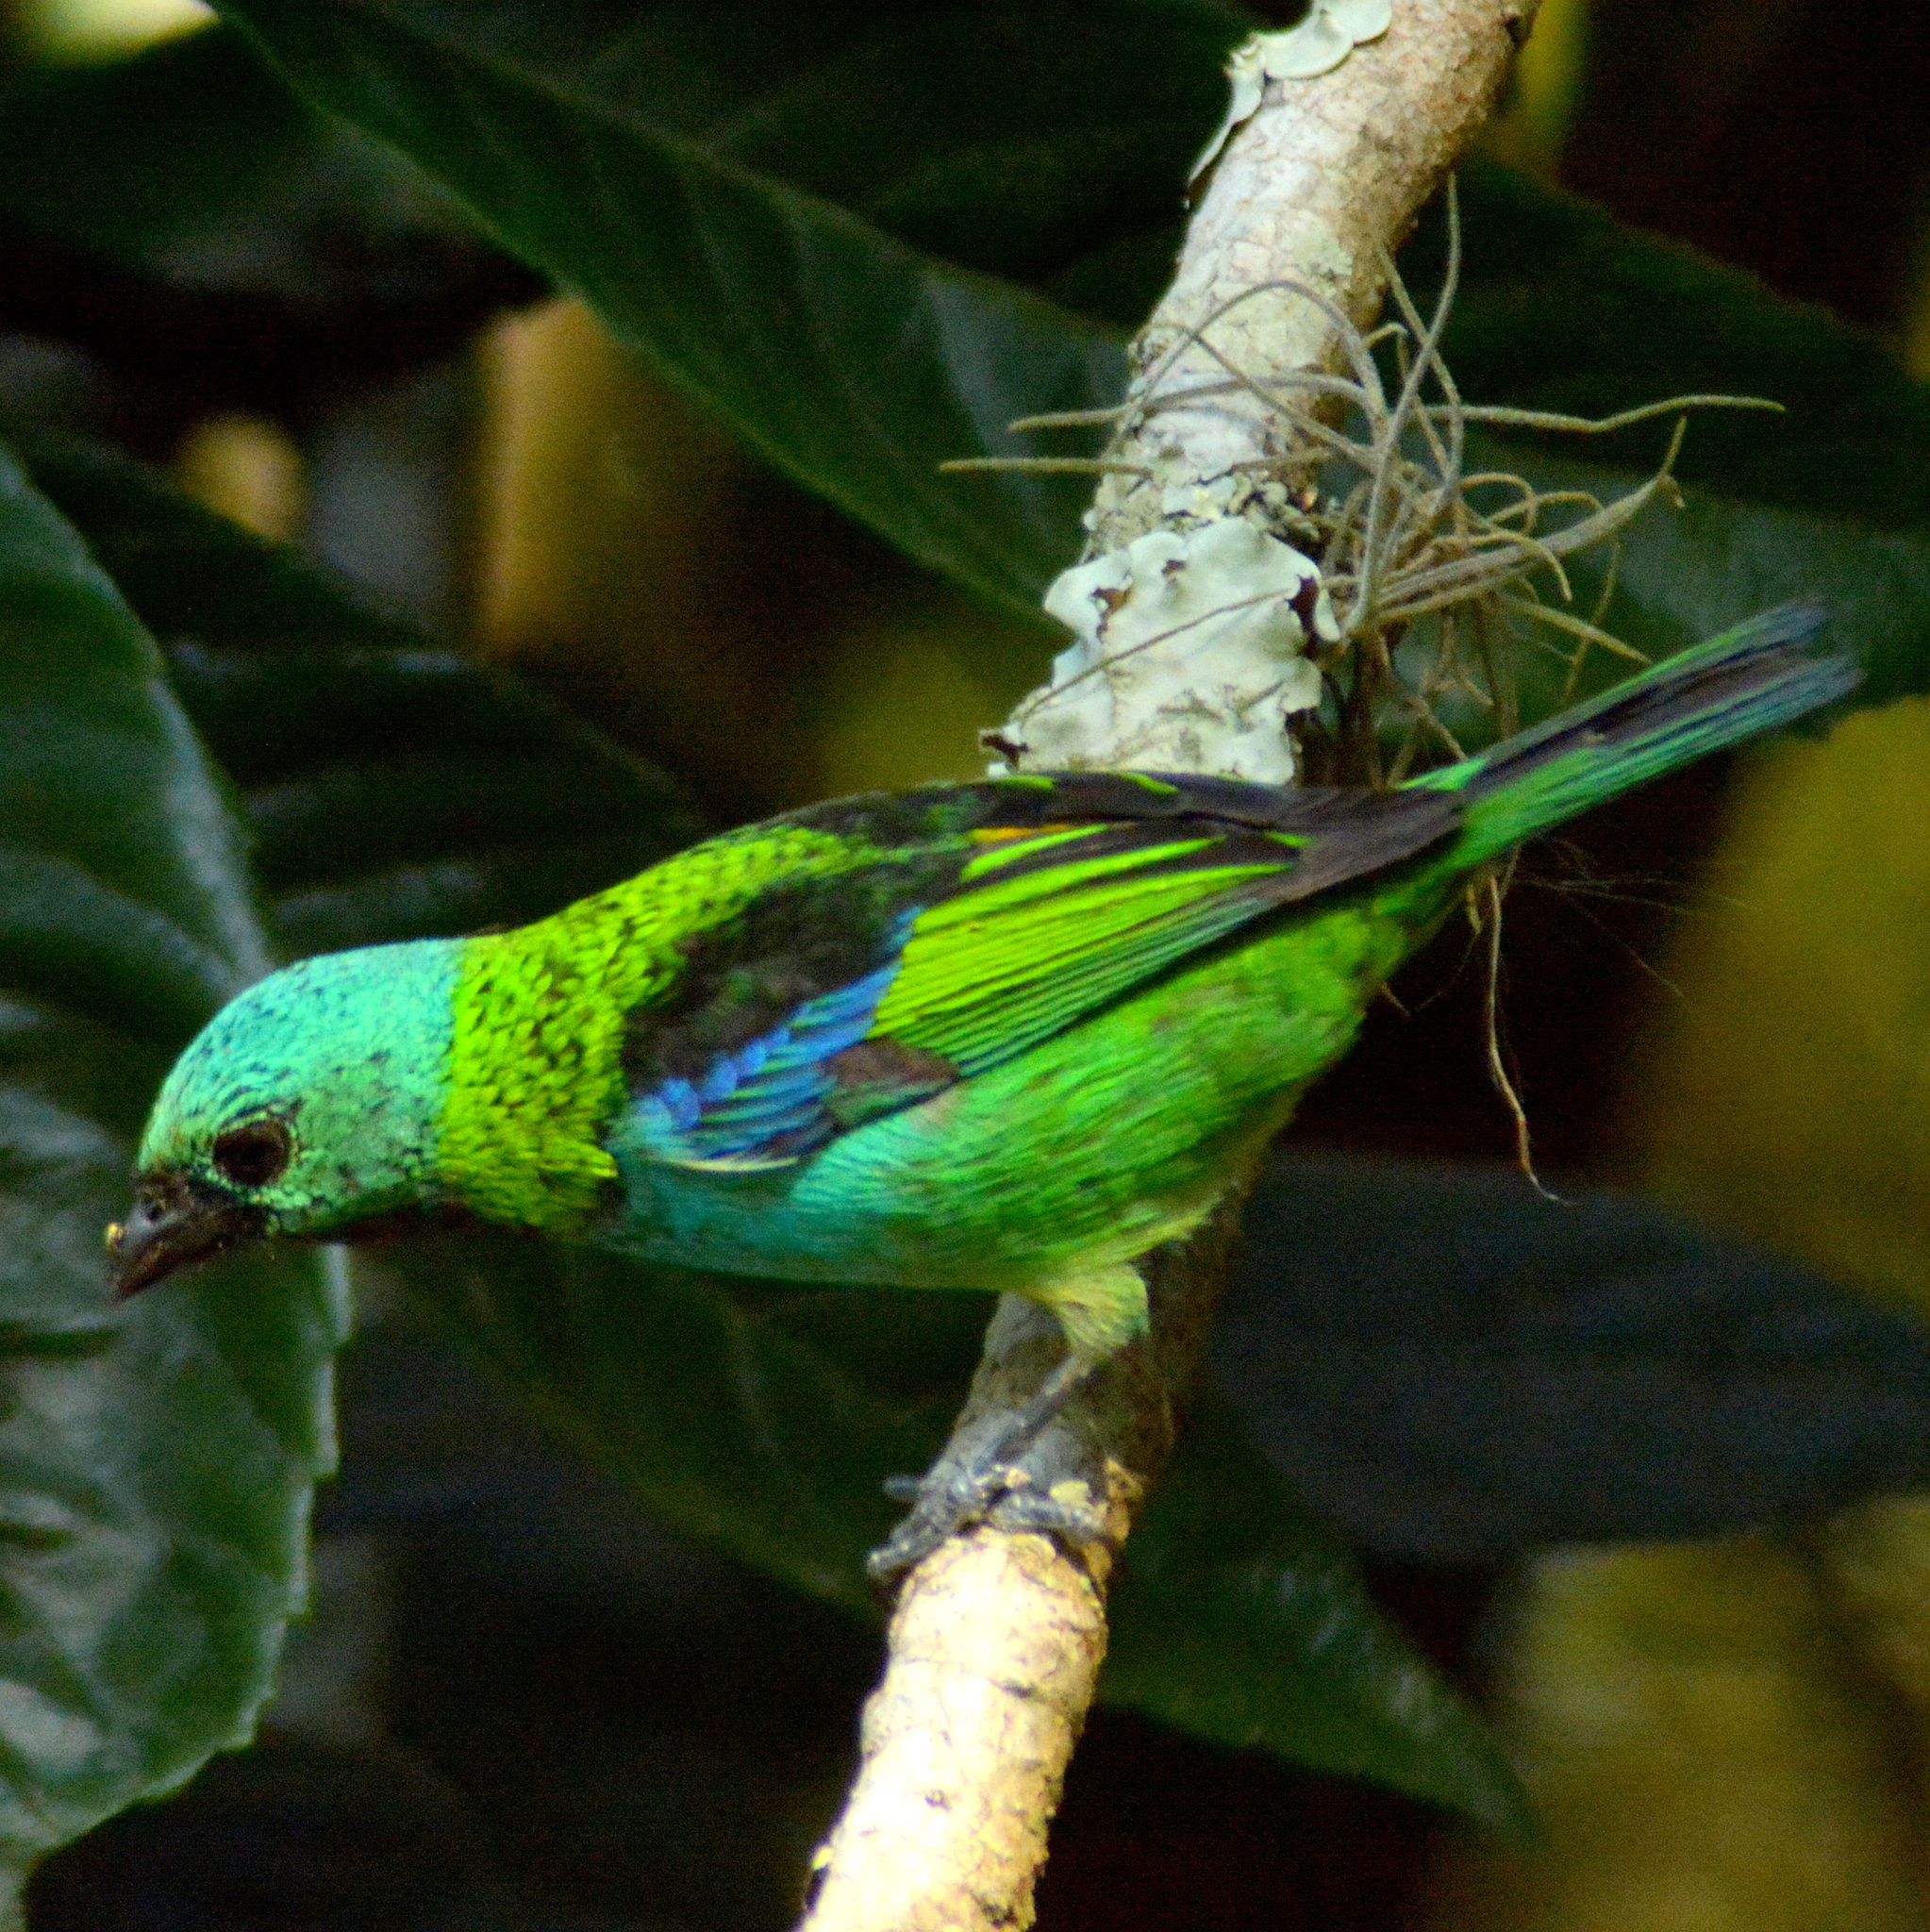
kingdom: Animalia
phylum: Chordata
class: Aves
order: Passeriformes
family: Thraupidae
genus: Tangara
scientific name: Tangara seledon
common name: Green-headed tanager
